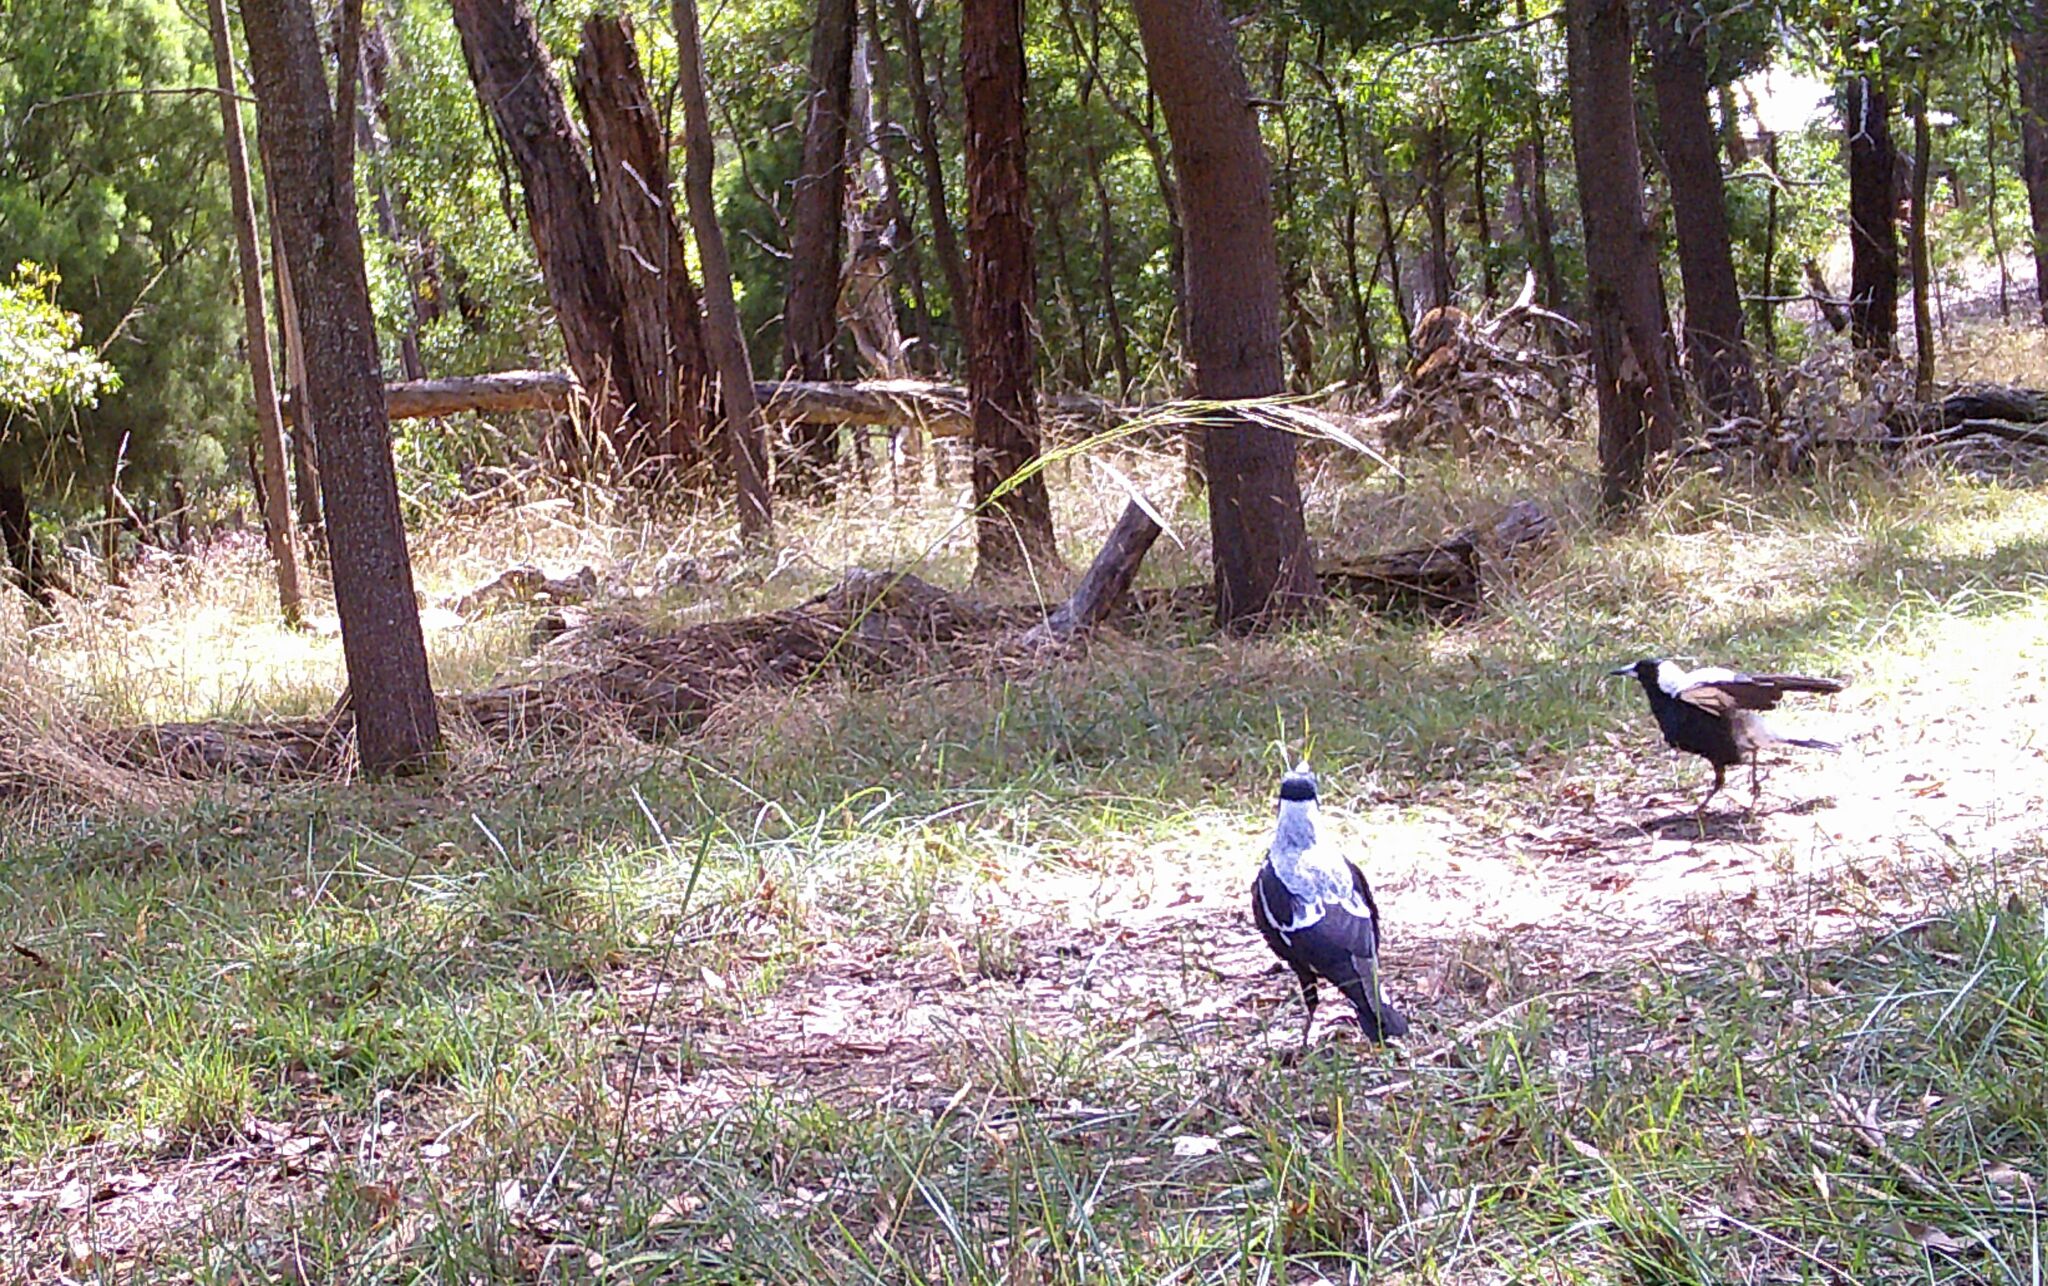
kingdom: Animalia
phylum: Chordata
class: Aves
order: Passeriformes
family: Cracticidae
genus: Gymnorhina
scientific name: Gymnorhina tibicen
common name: Australian magpie
